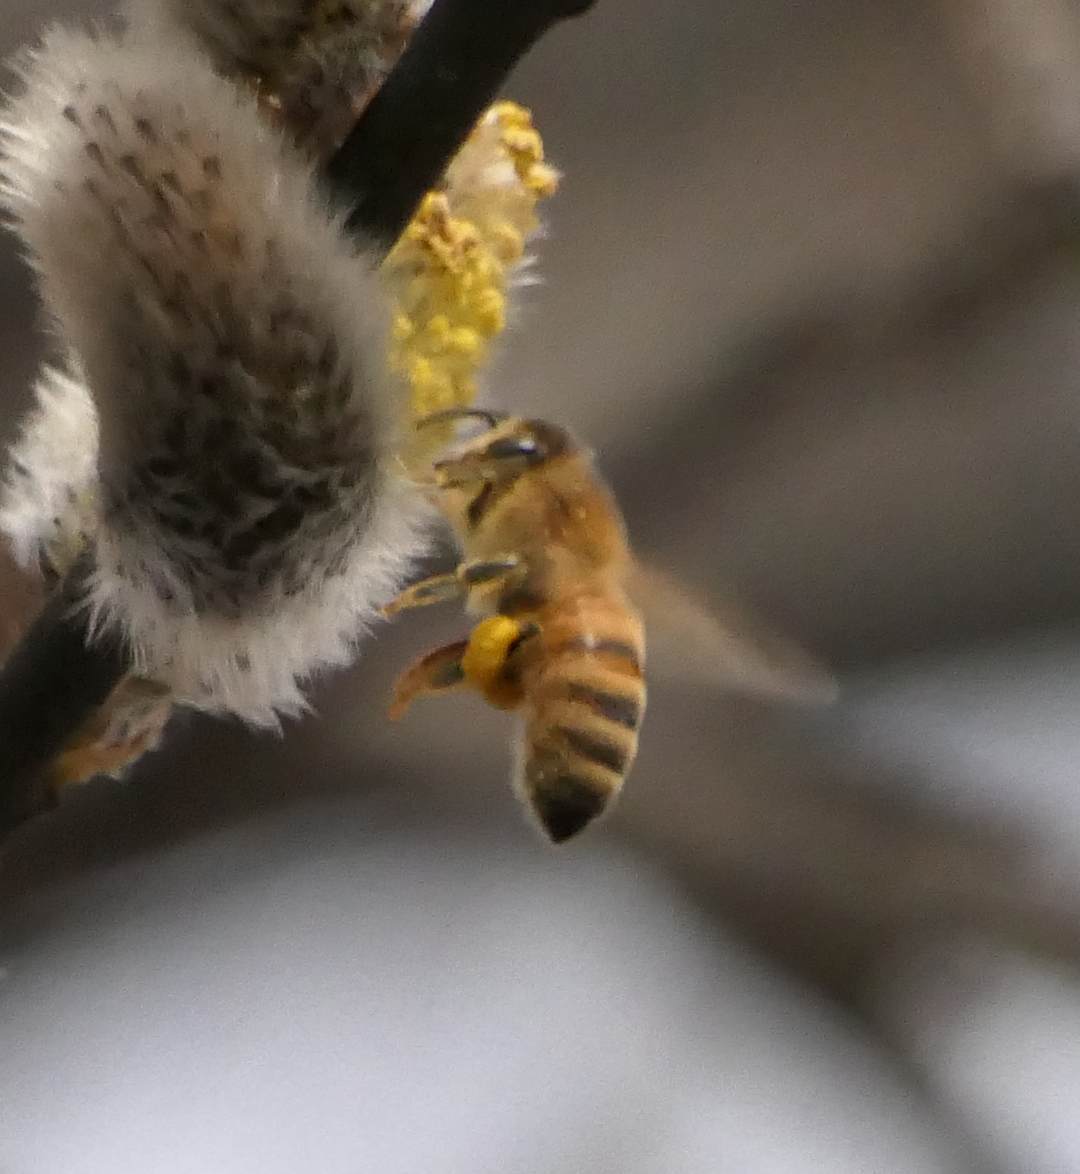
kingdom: Animalia
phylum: Arthropoda
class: Insecta
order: Hymenoptera
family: Apidae
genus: Apis
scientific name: Apis mellifera
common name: Honey bee
